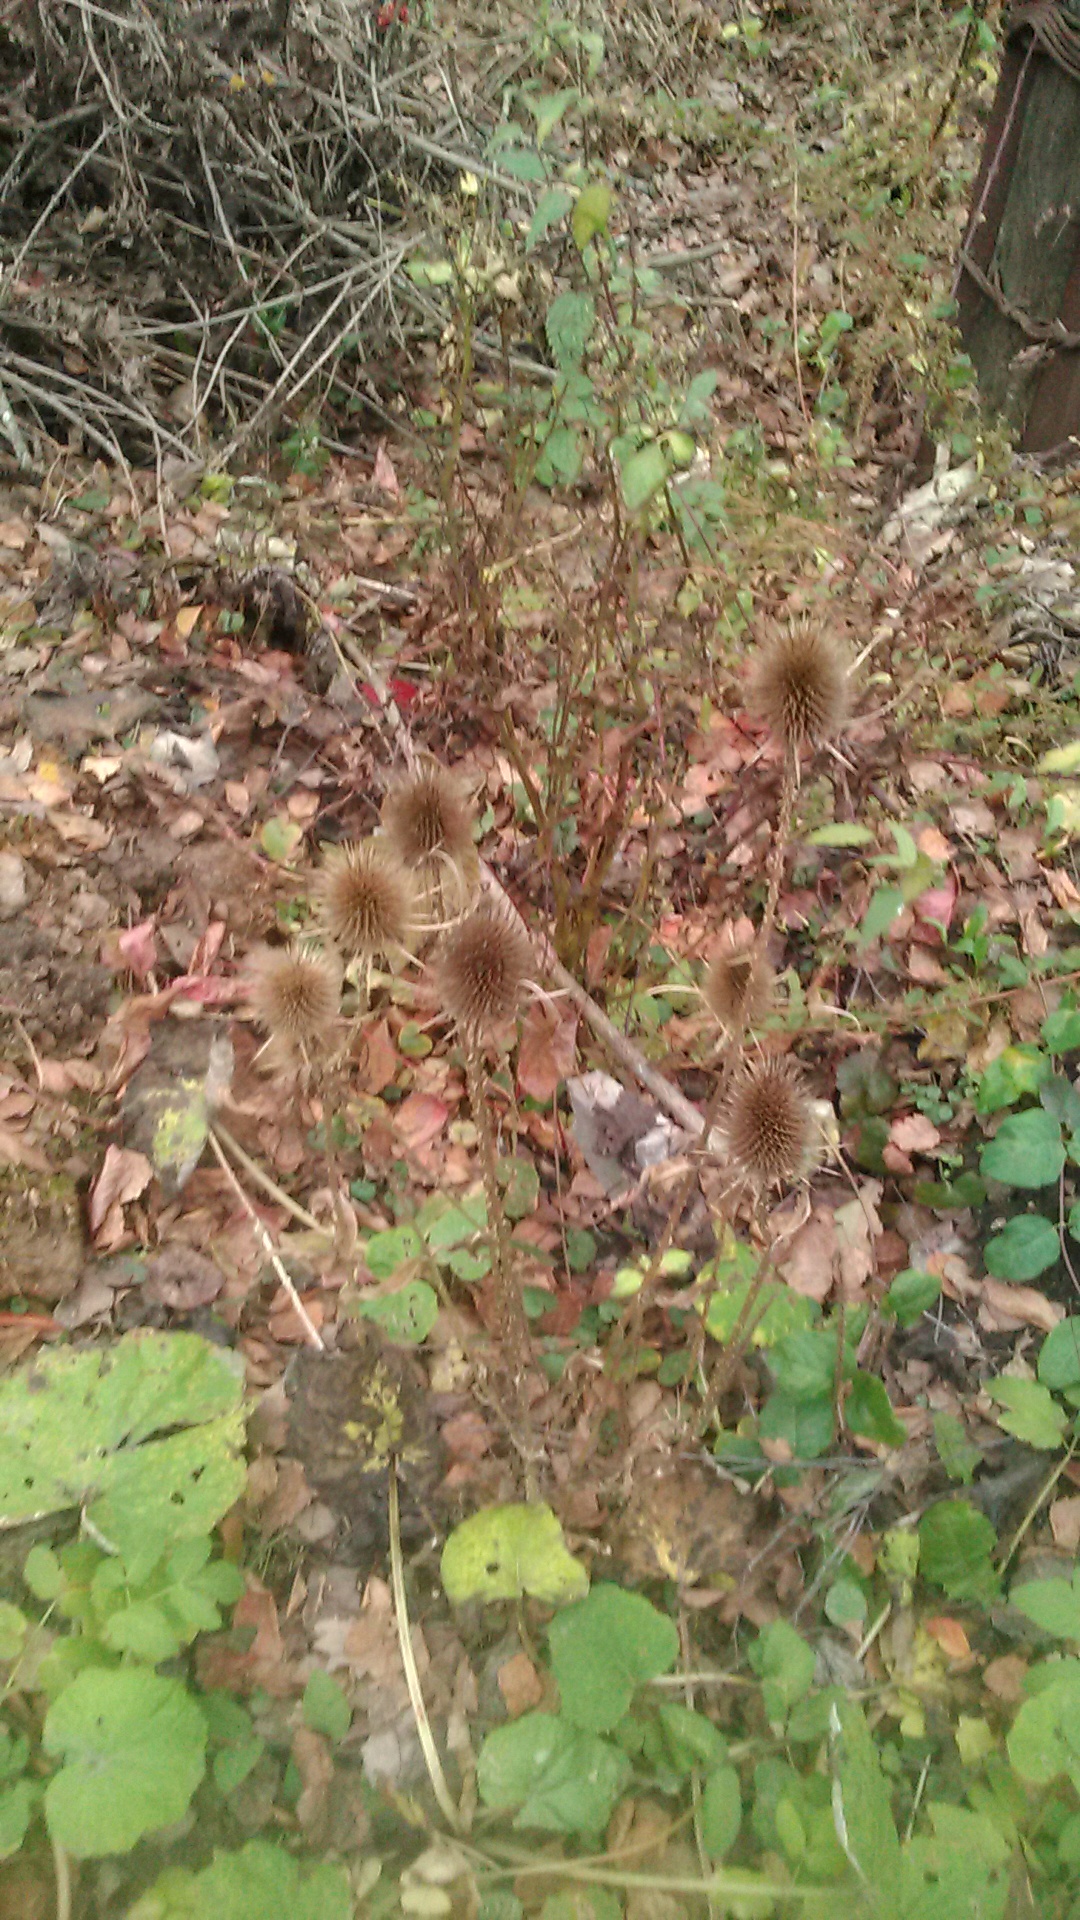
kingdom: Plantae
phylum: Tracheophyta
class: Magnoliopsida
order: Dipsacales
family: Caprifoliaceae
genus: Dipsacus
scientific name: Dipsacus fullonum
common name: Teasel
